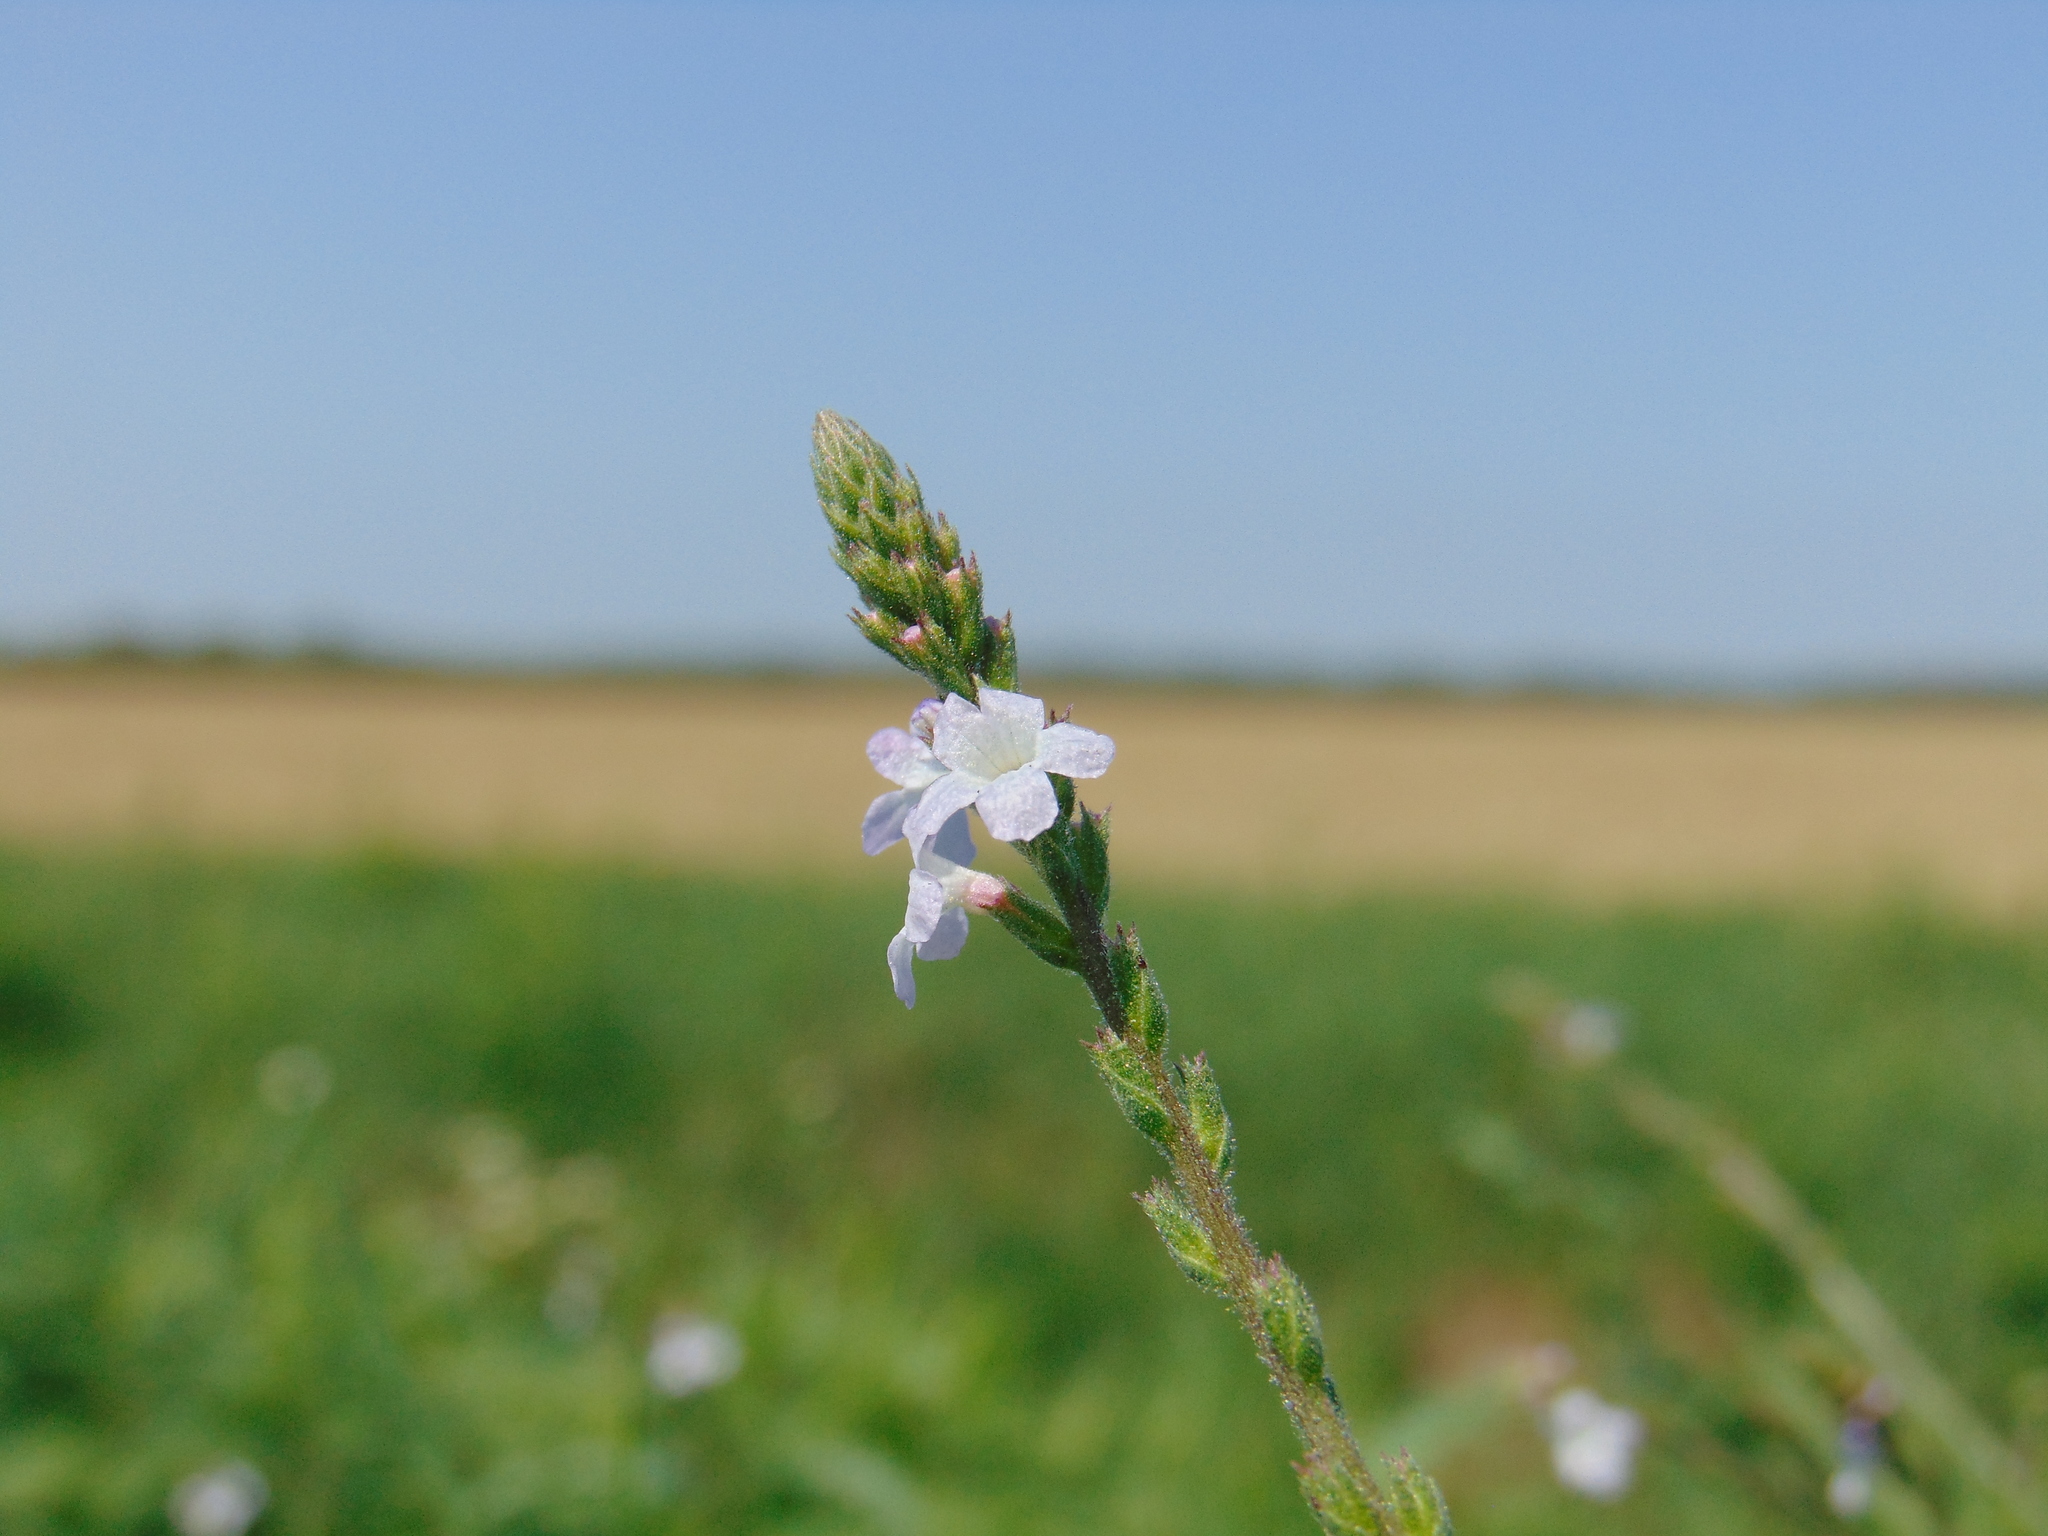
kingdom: Plantae
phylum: Tracheophyta
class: Magnoliopsida
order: Lamiales
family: Verbenaceae
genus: Verbena
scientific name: Verbena officinalis
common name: Vervain
